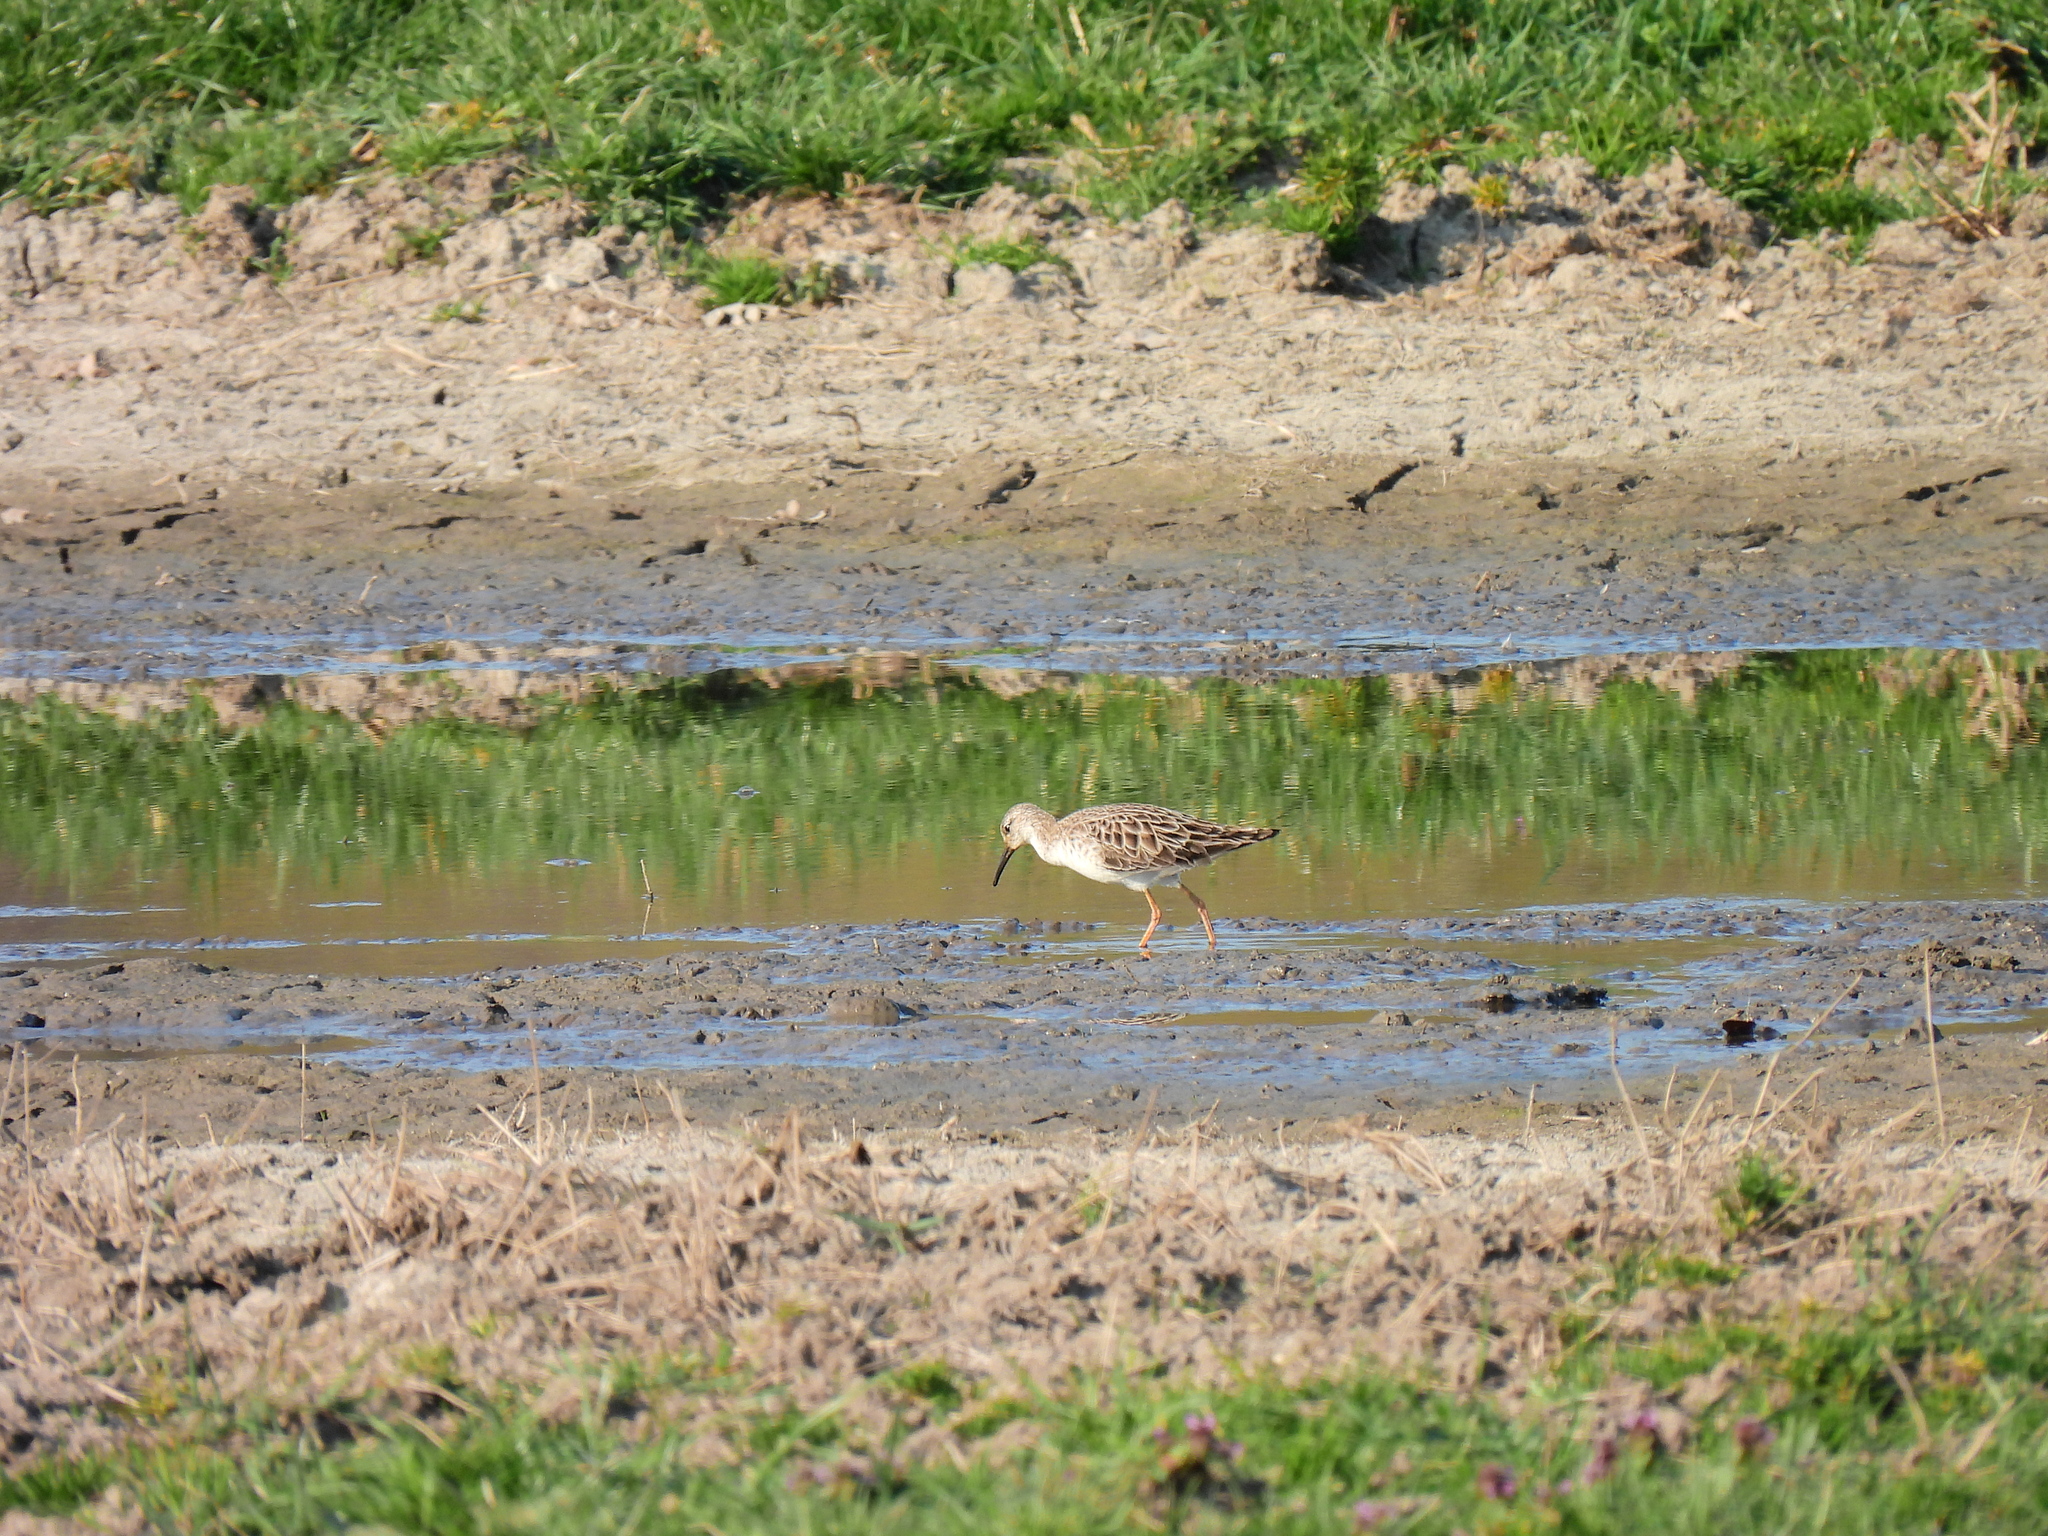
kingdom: Animalia
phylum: Chordata
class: Aves
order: Charadriiformes
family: Scolopacidae
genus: Calidris
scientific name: Calidris pugnax
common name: Ruff
